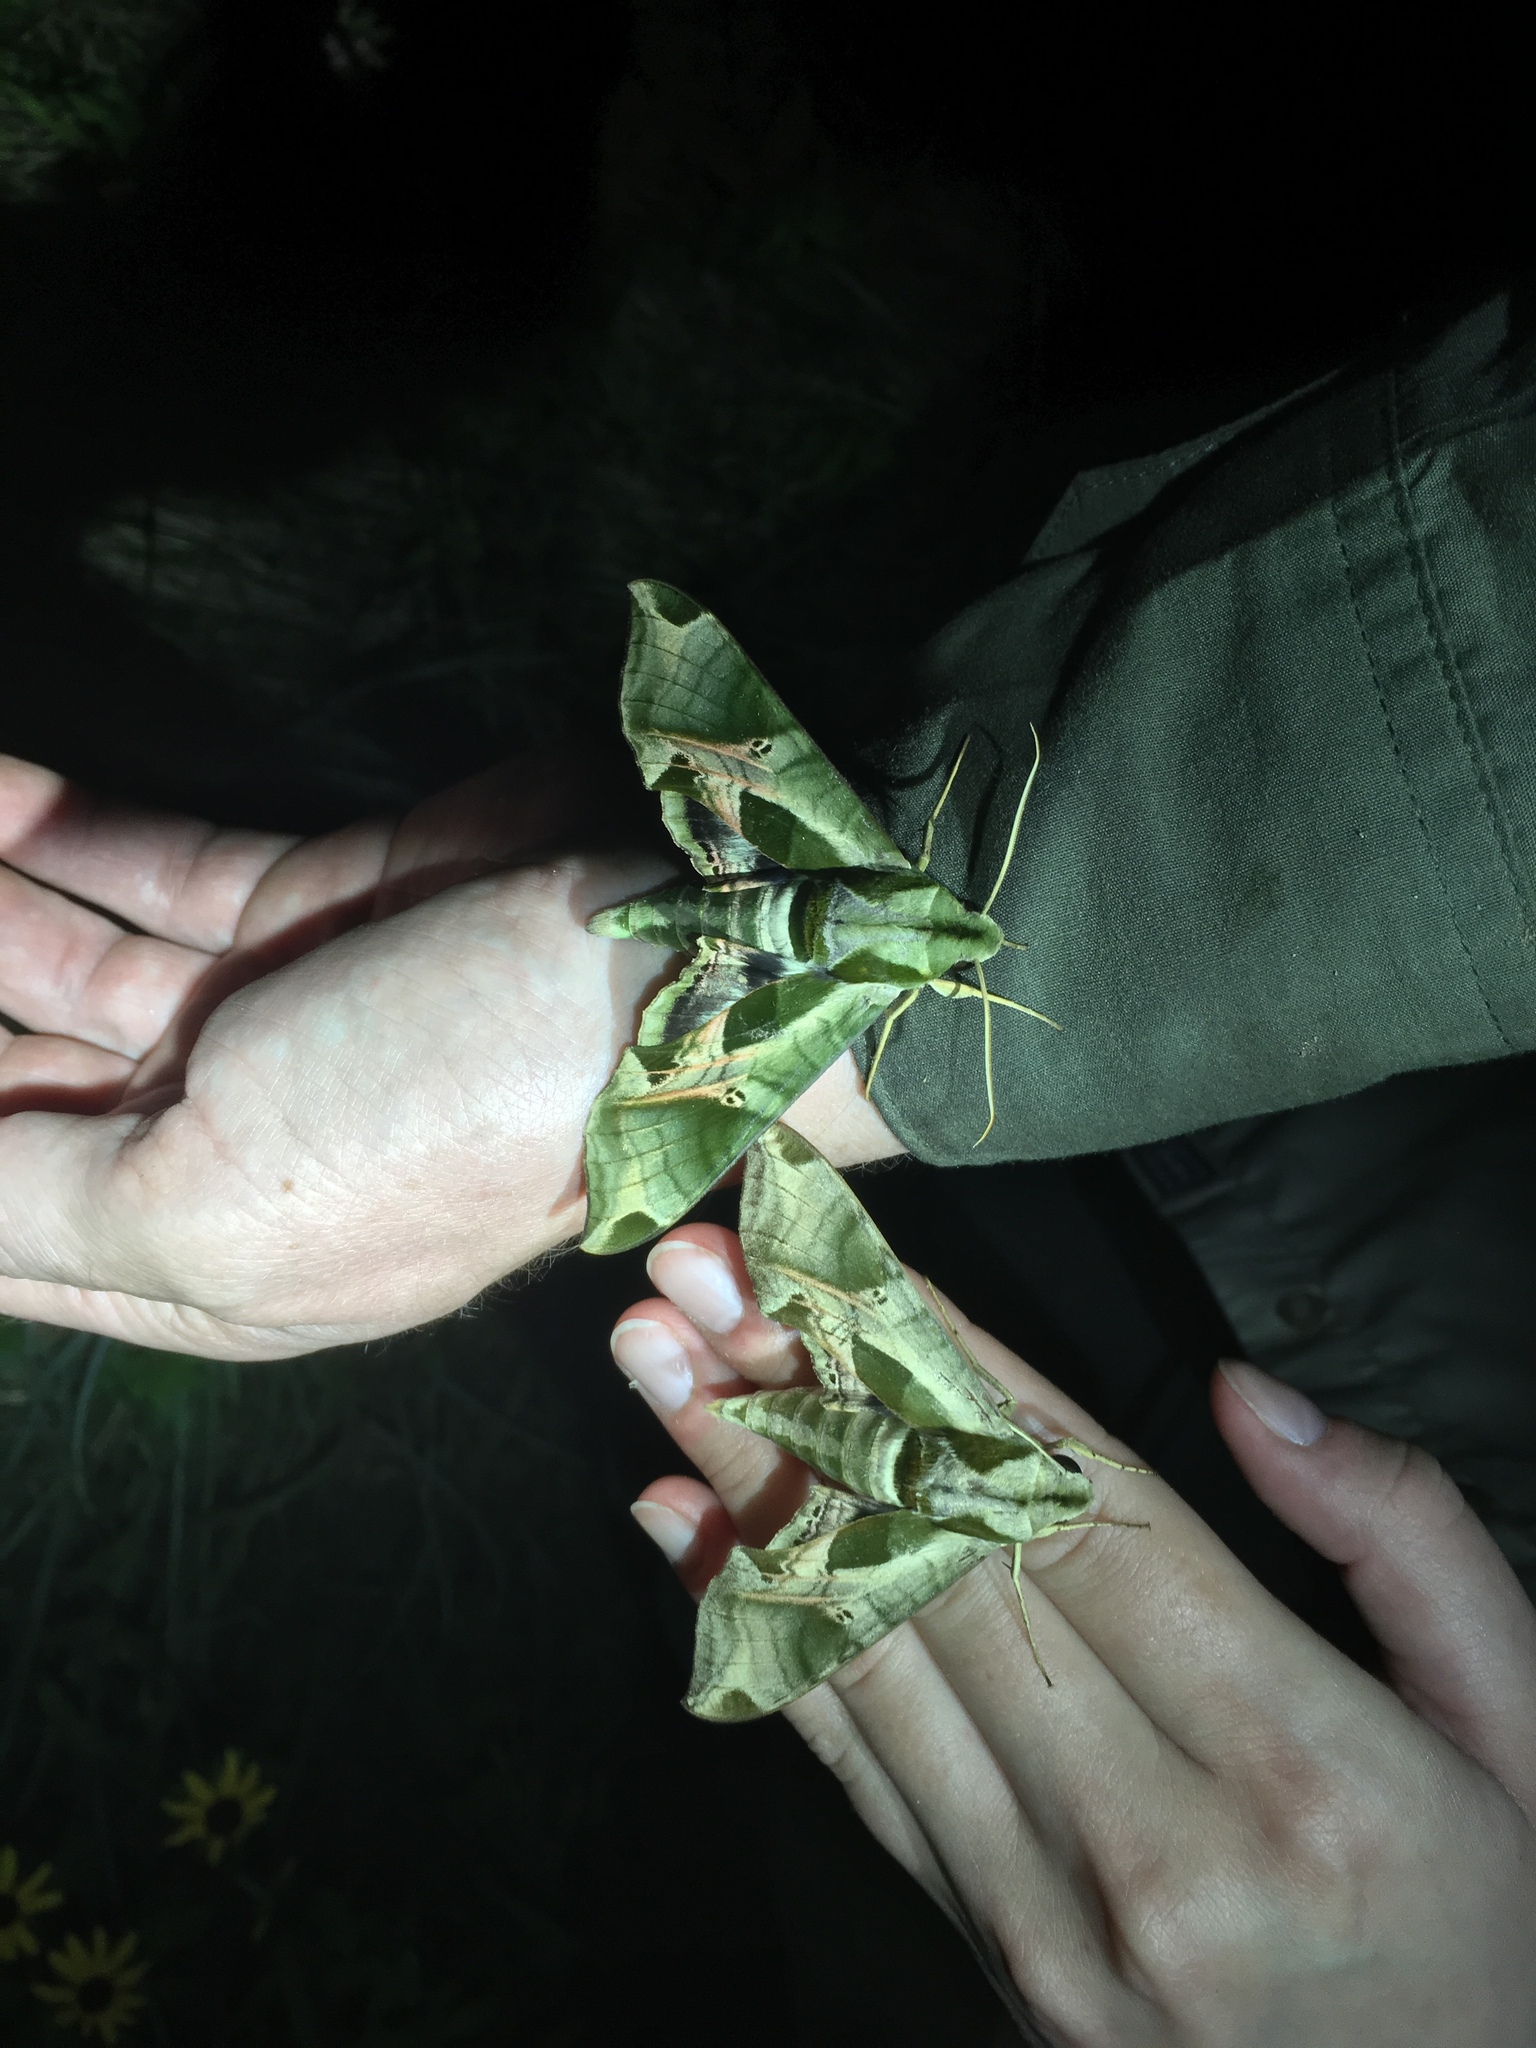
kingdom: Animalia
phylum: Arthropoda
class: Insecta
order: Lepidoptera
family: Sphingidae
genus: Eumorpha
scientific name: Eumorpha pandorus
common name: Pandora sphinx
